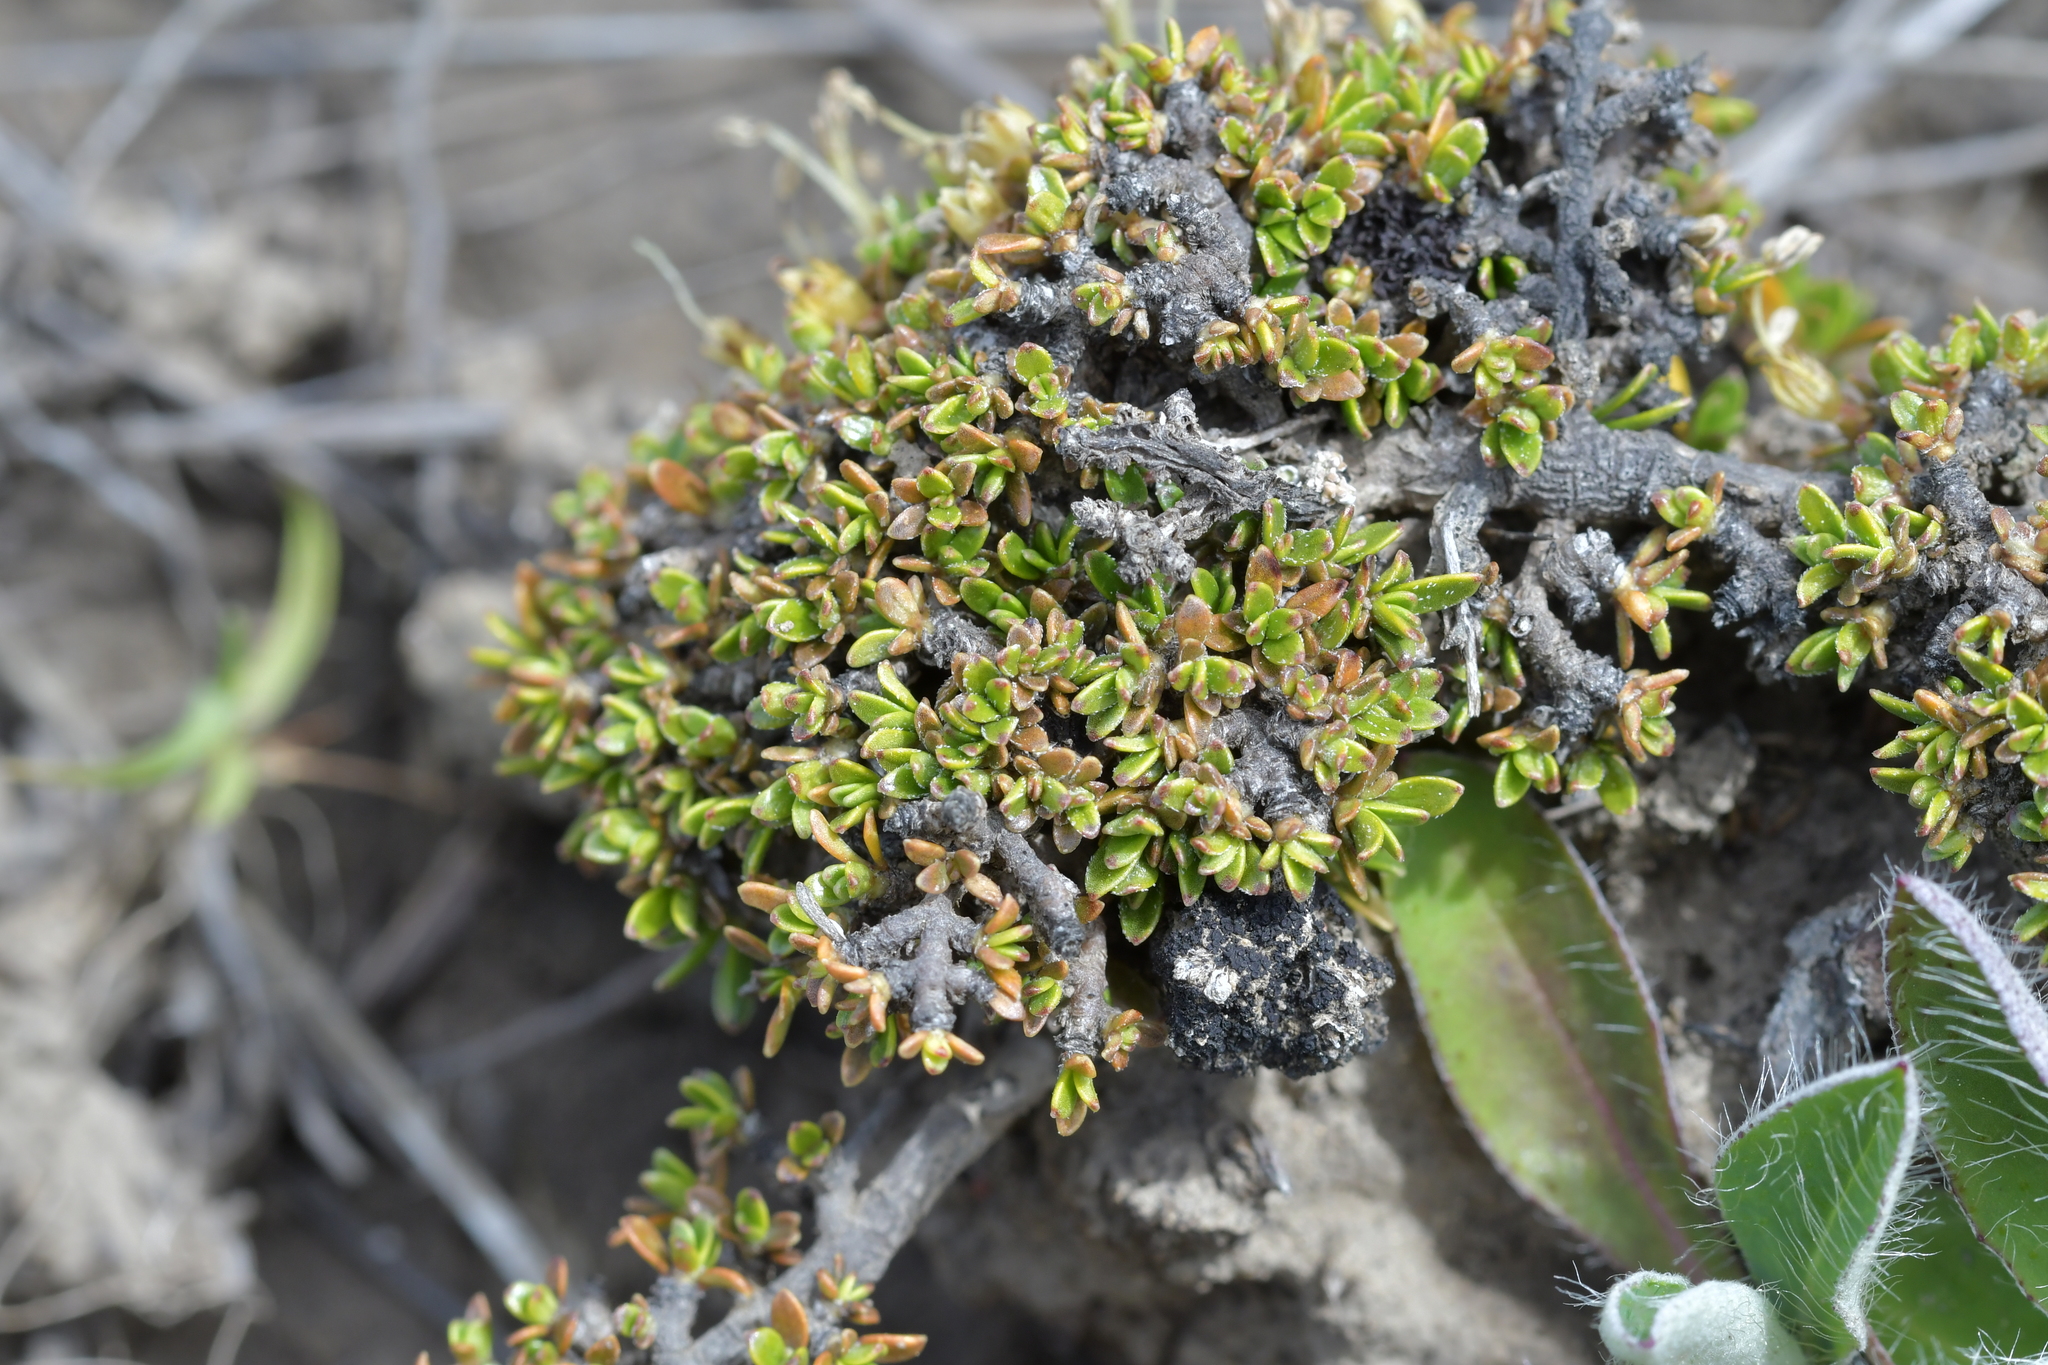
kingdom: Plantae
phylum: Tracheophyta
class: Magnoliopsida
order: Gentianales
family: Rubiaceae
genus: Coprosma
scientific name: Coprosma petriei
